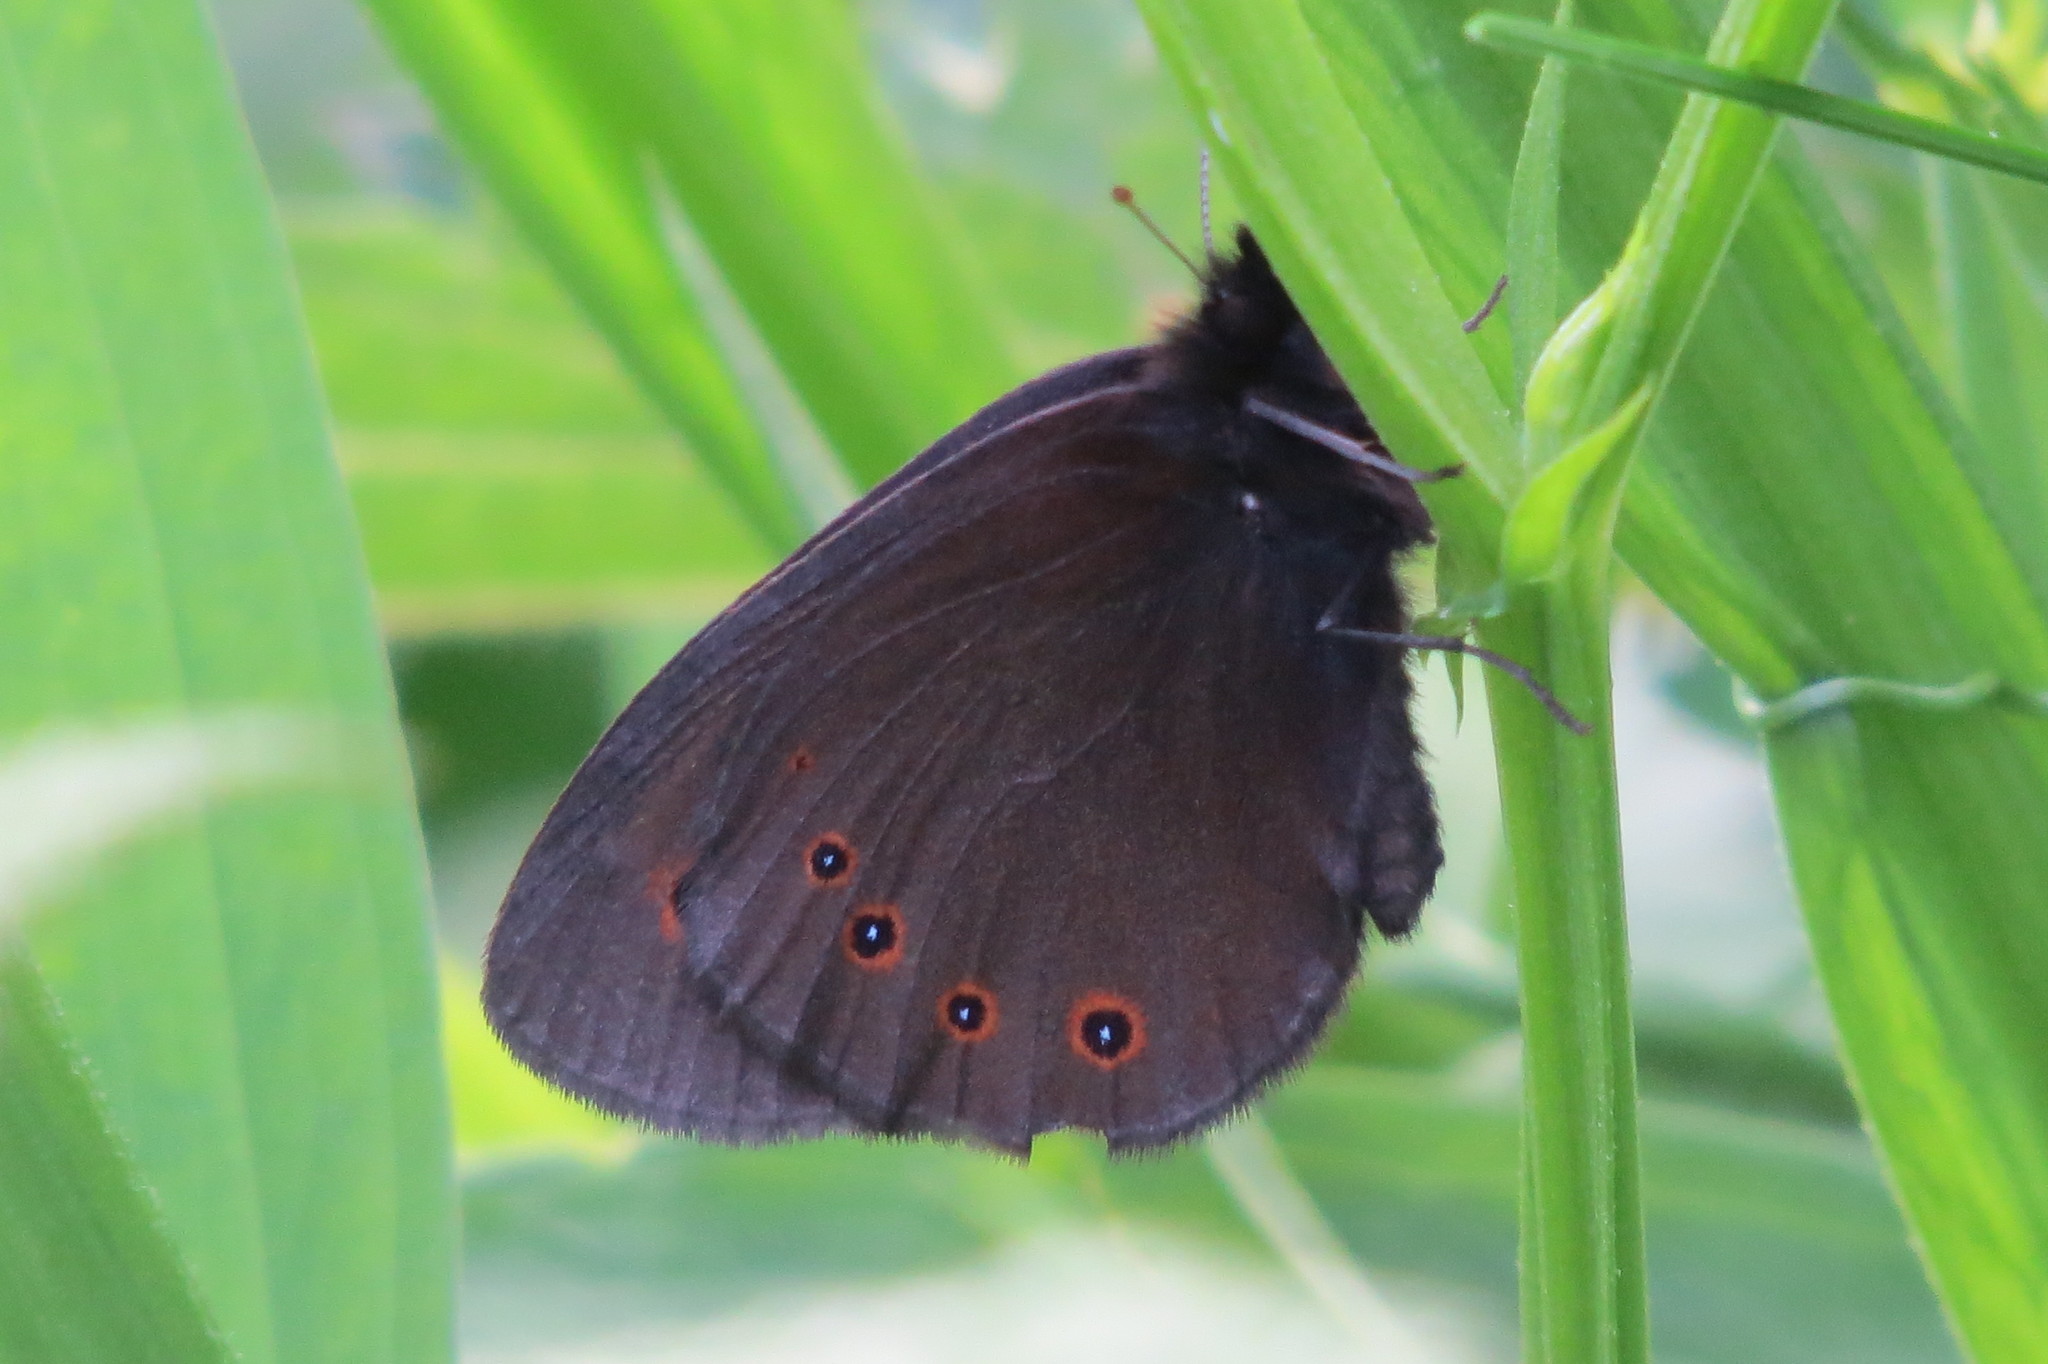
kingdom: Animalia
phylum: Arthropoda
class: Insecta
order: Lepidoptera
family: Nymphalidae
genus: Erebia
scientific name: Erebia medusa
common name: Woodland ringlet
